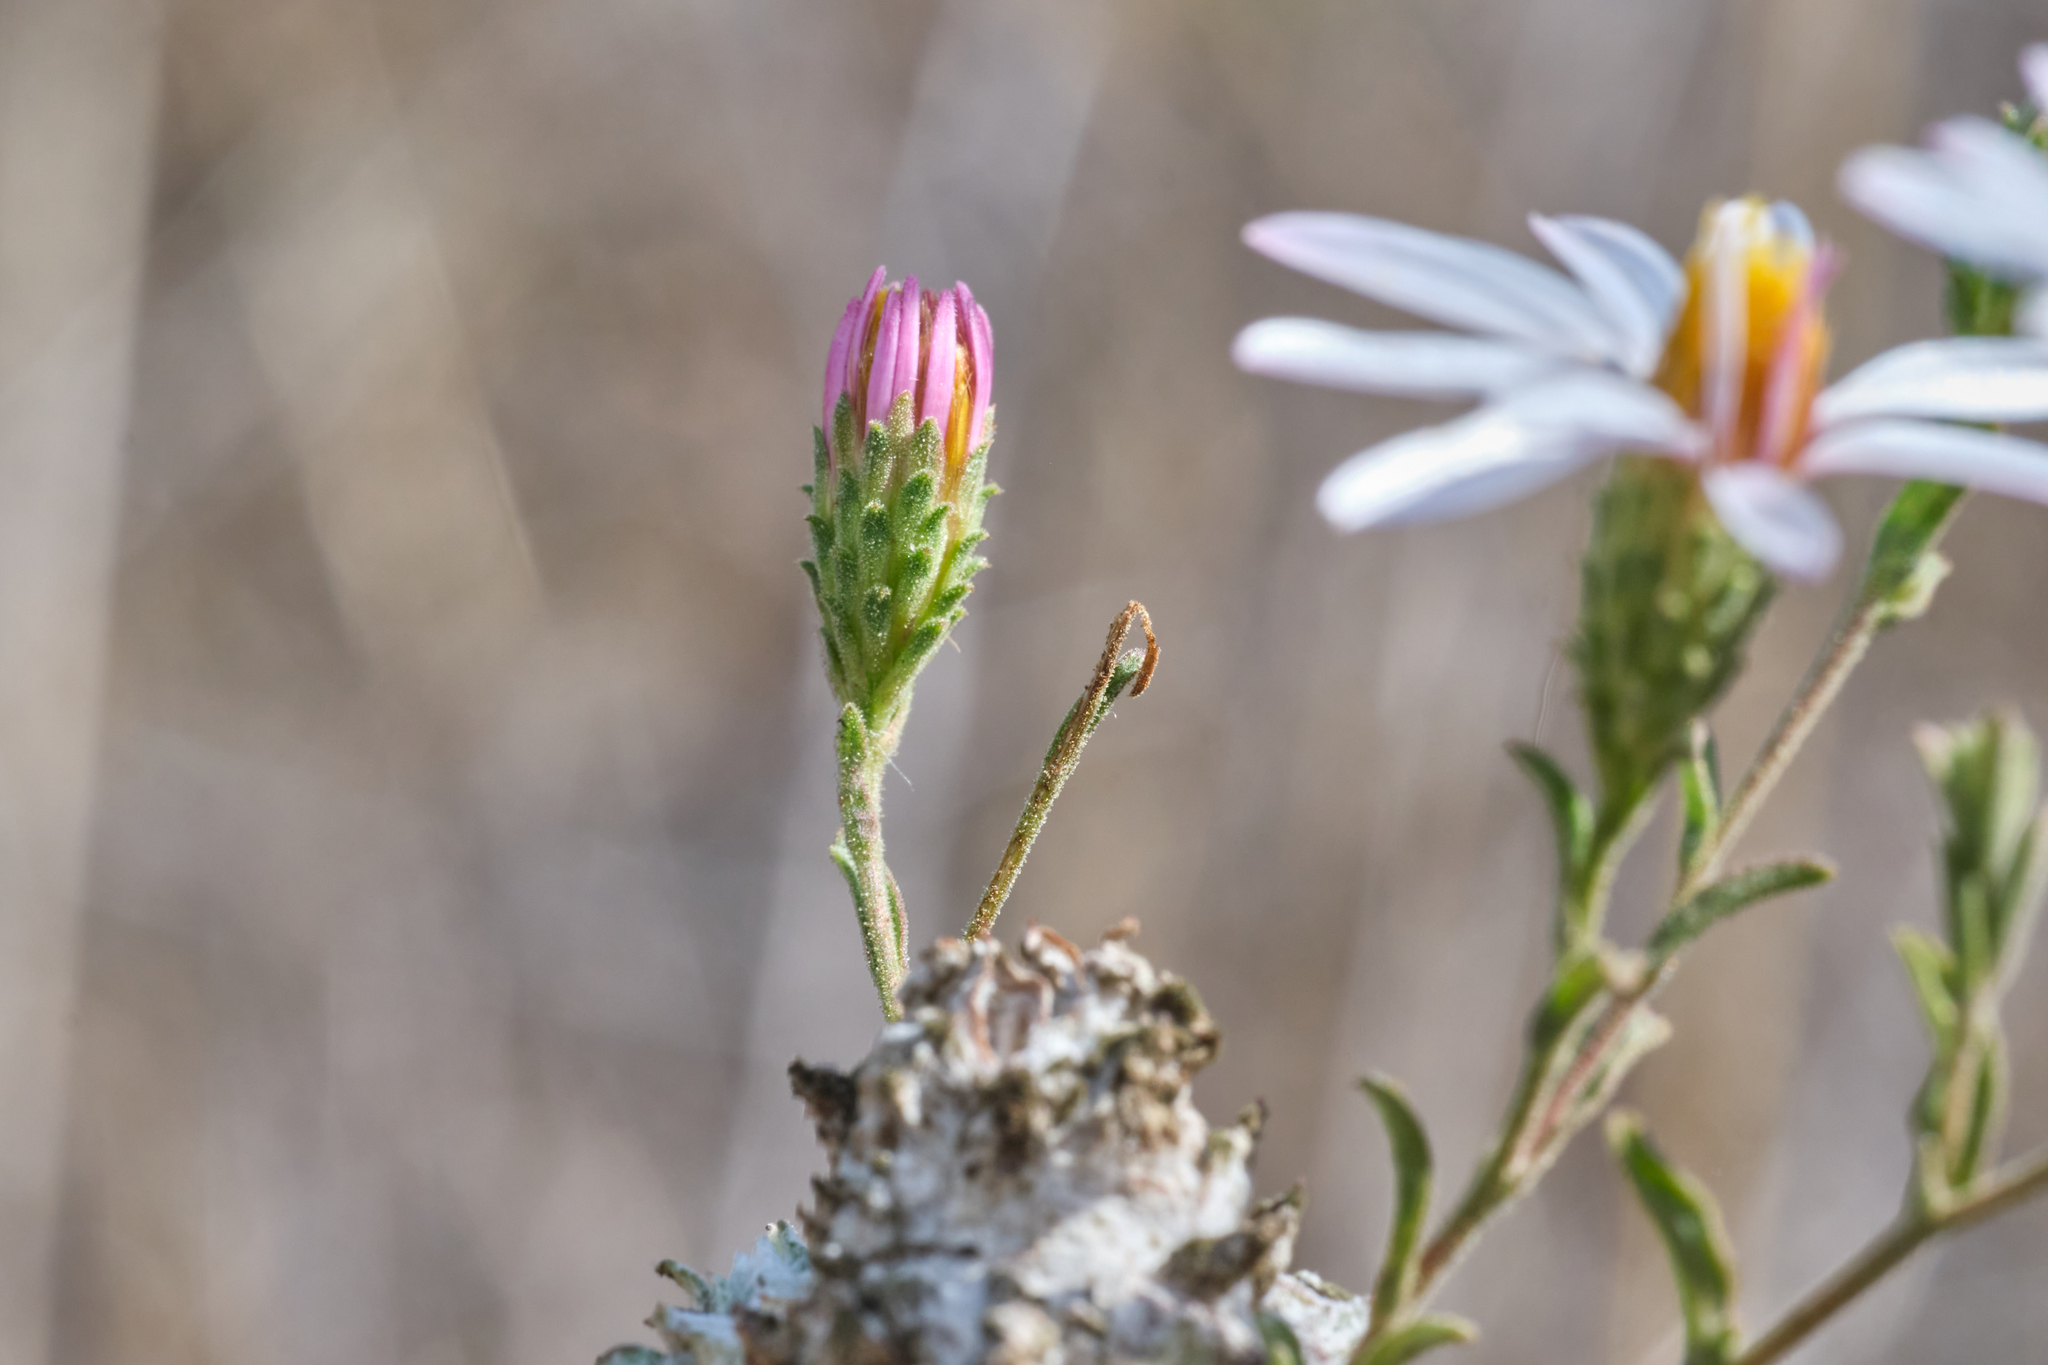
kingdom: Plantae
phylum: Tracheophyta
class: Magnoliopsida
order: Asterales
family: Asteraceae
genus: Corethrogyne
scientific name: Corethrogyne filaginifolia
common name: Sand-aster
